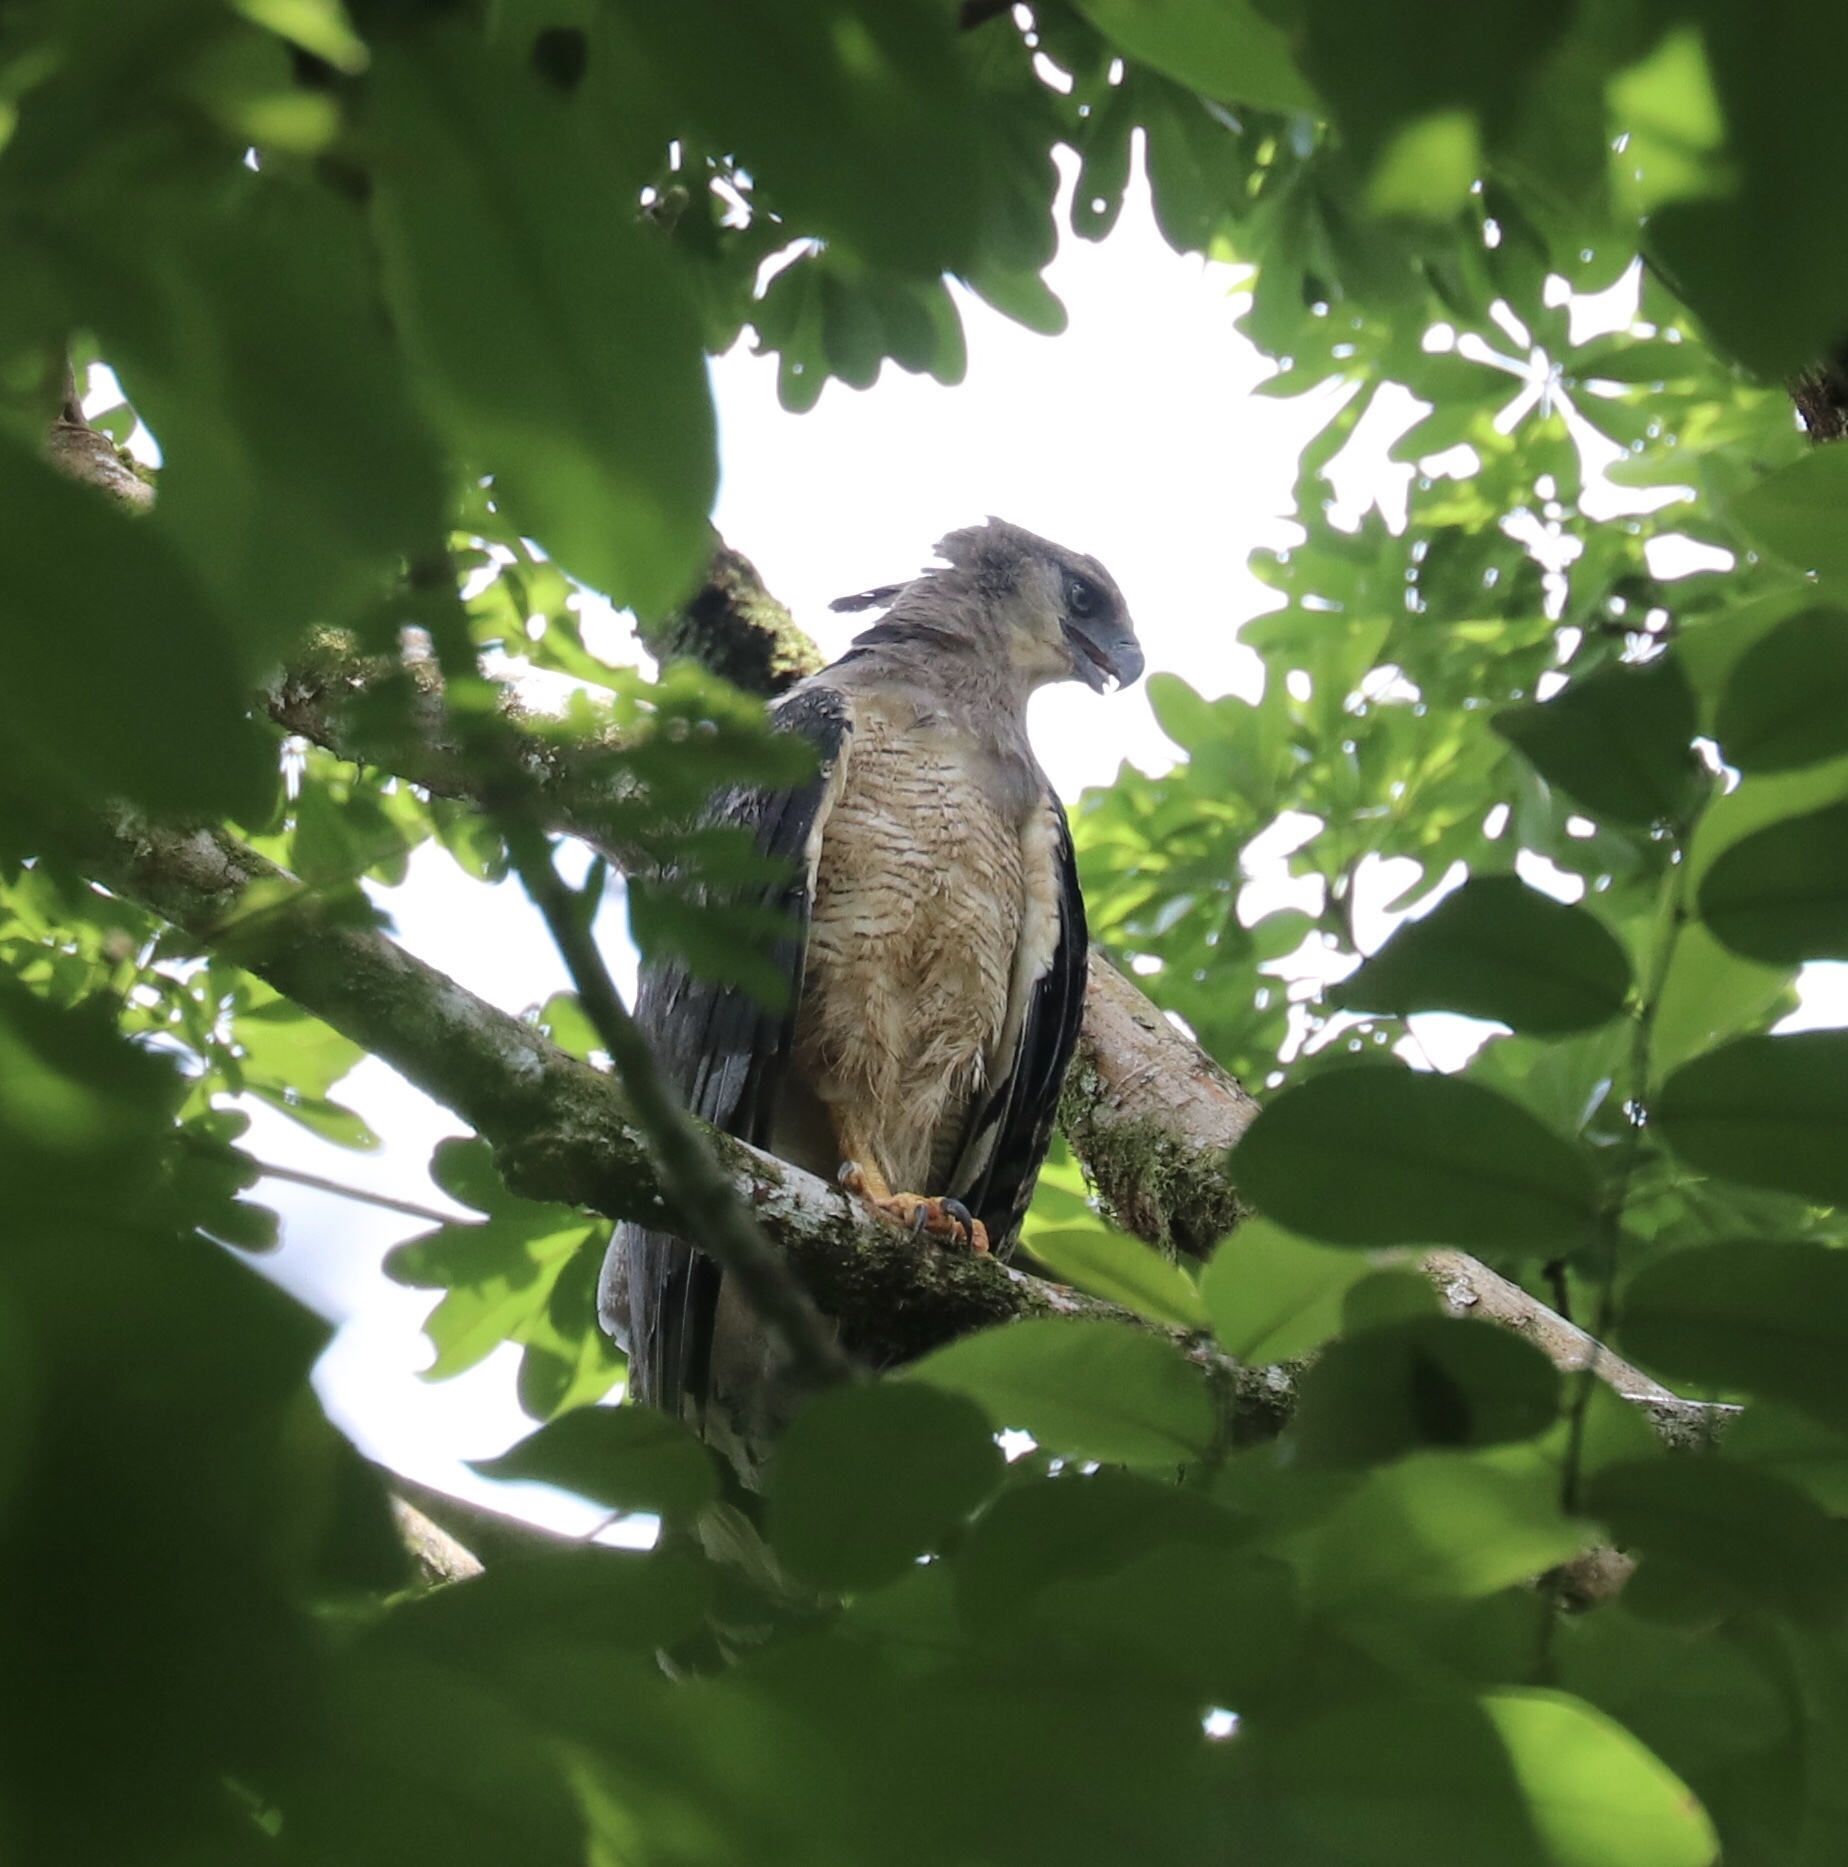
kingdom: Animalia
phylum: Chordata
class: Aves
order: Accipitriformes
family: Accipitridae
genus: Morphnus
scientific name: Morphnus guianensis
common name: Crested eagle
